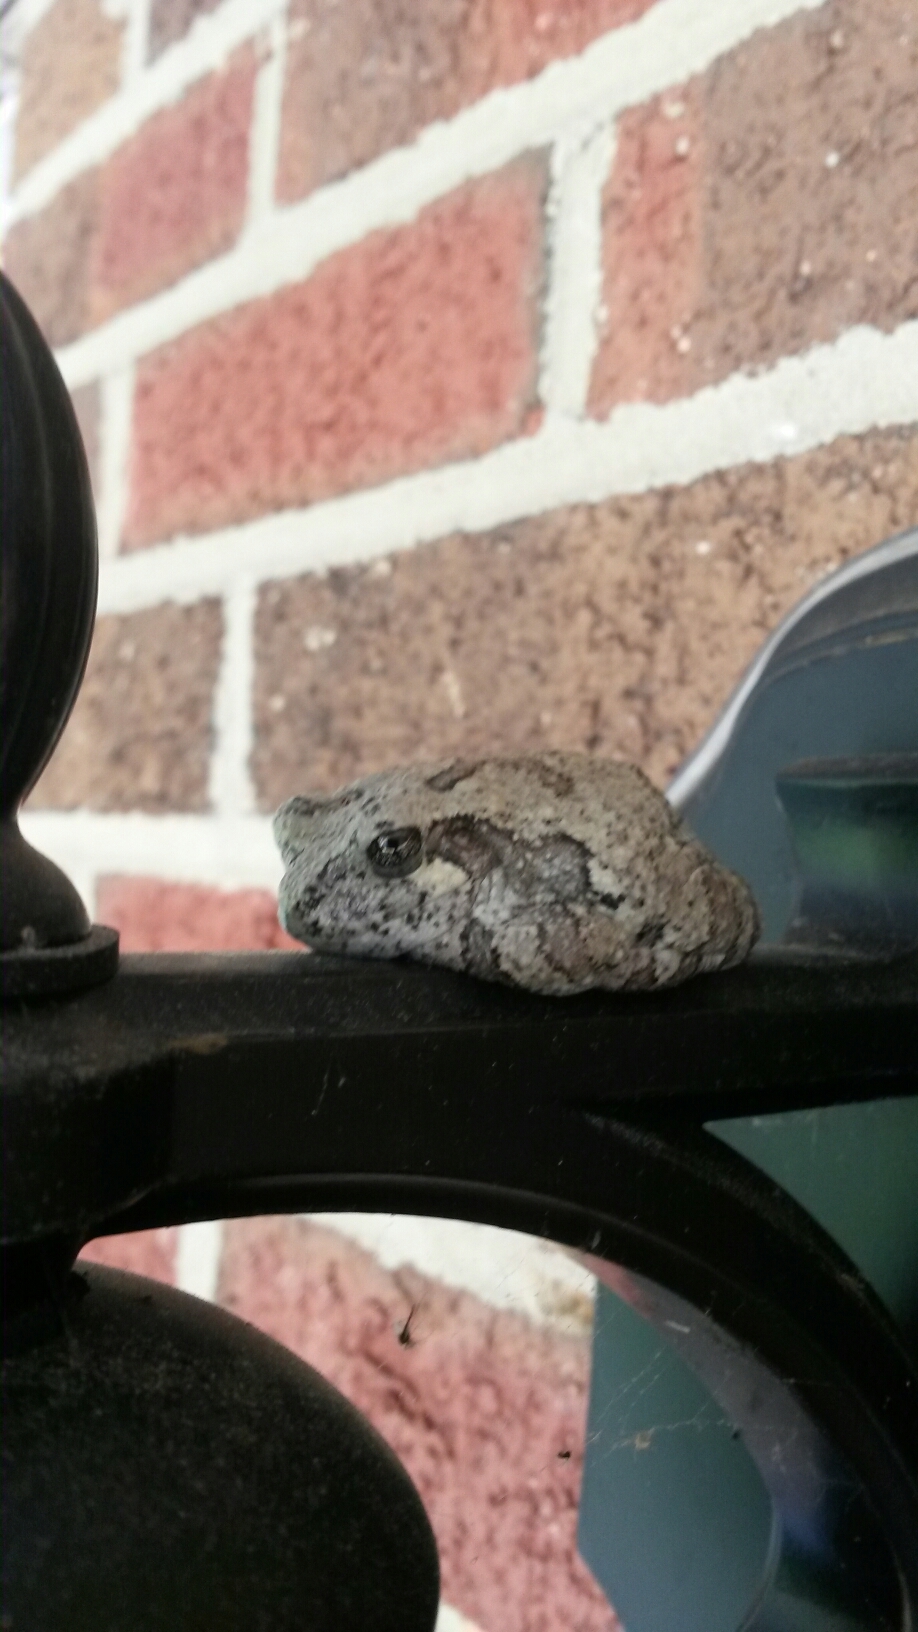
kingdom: Animalia
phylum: Chordata
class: Amphibia
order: Anura
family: Hylidae
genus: Hyla
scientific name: Hyla
